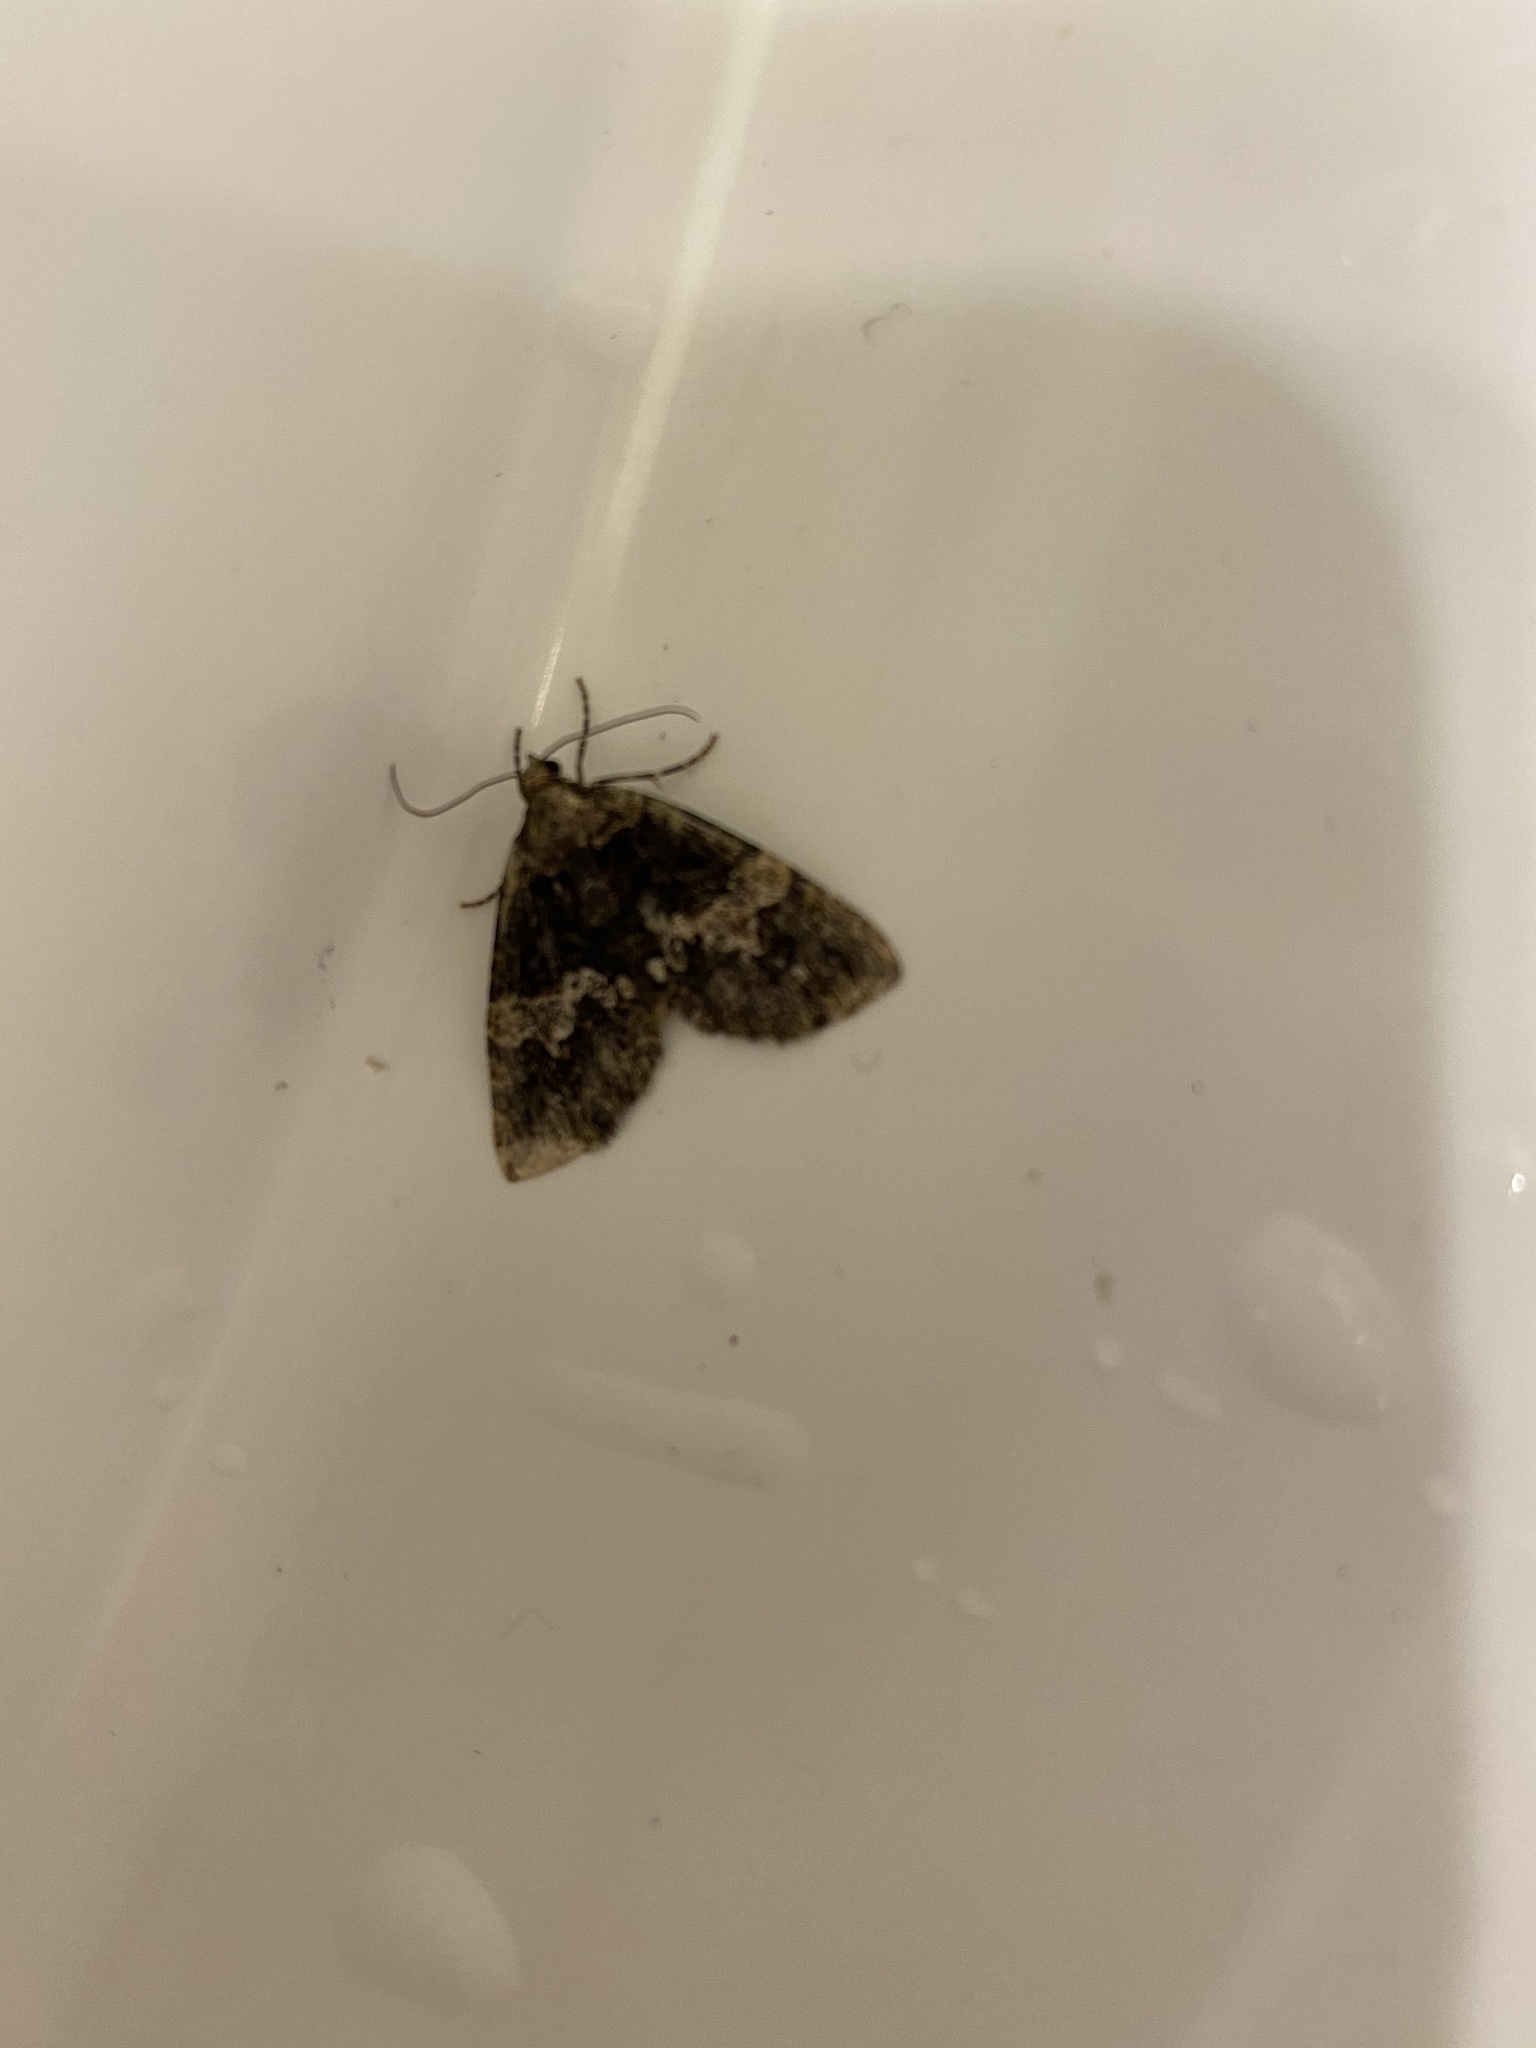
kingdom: Animalia
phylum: Arthropoda
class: Insecta
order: Lepidoptera
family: Geometridae
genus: Hydriomena
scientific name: Hydriomena albifasciata
